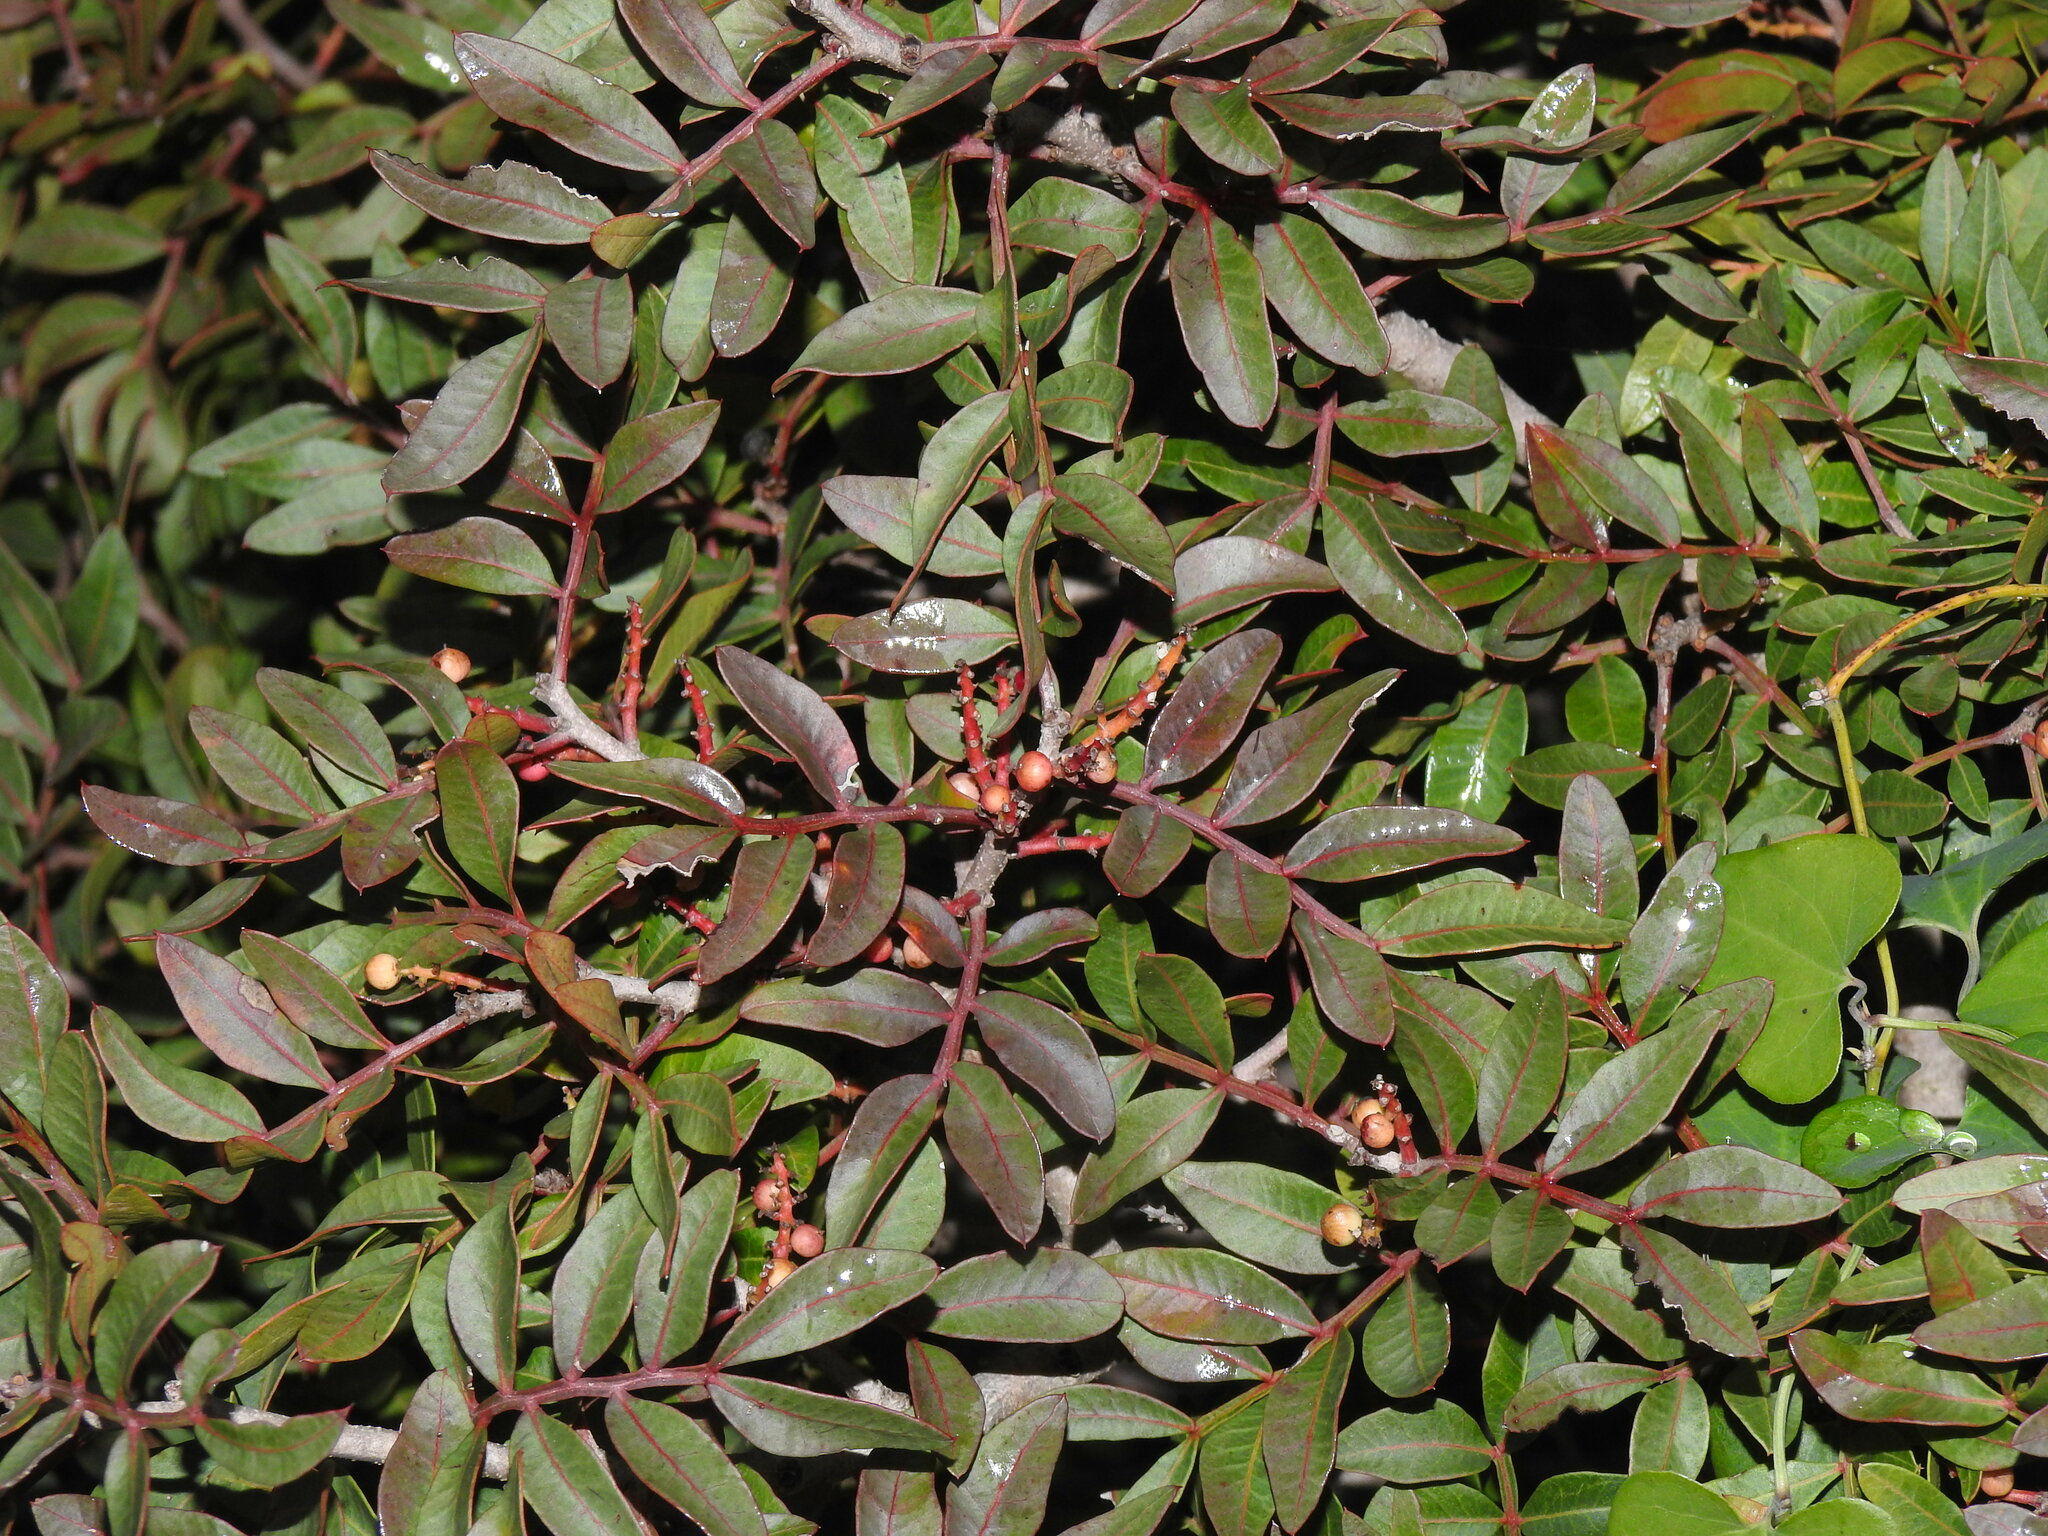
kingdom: Plantae
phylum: Tracheophyta
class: Magnoliopsida
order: Sapindales
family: Anacardiaceae
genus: Pistacia
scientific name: Pistacia lentiscus
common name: Lentisk
